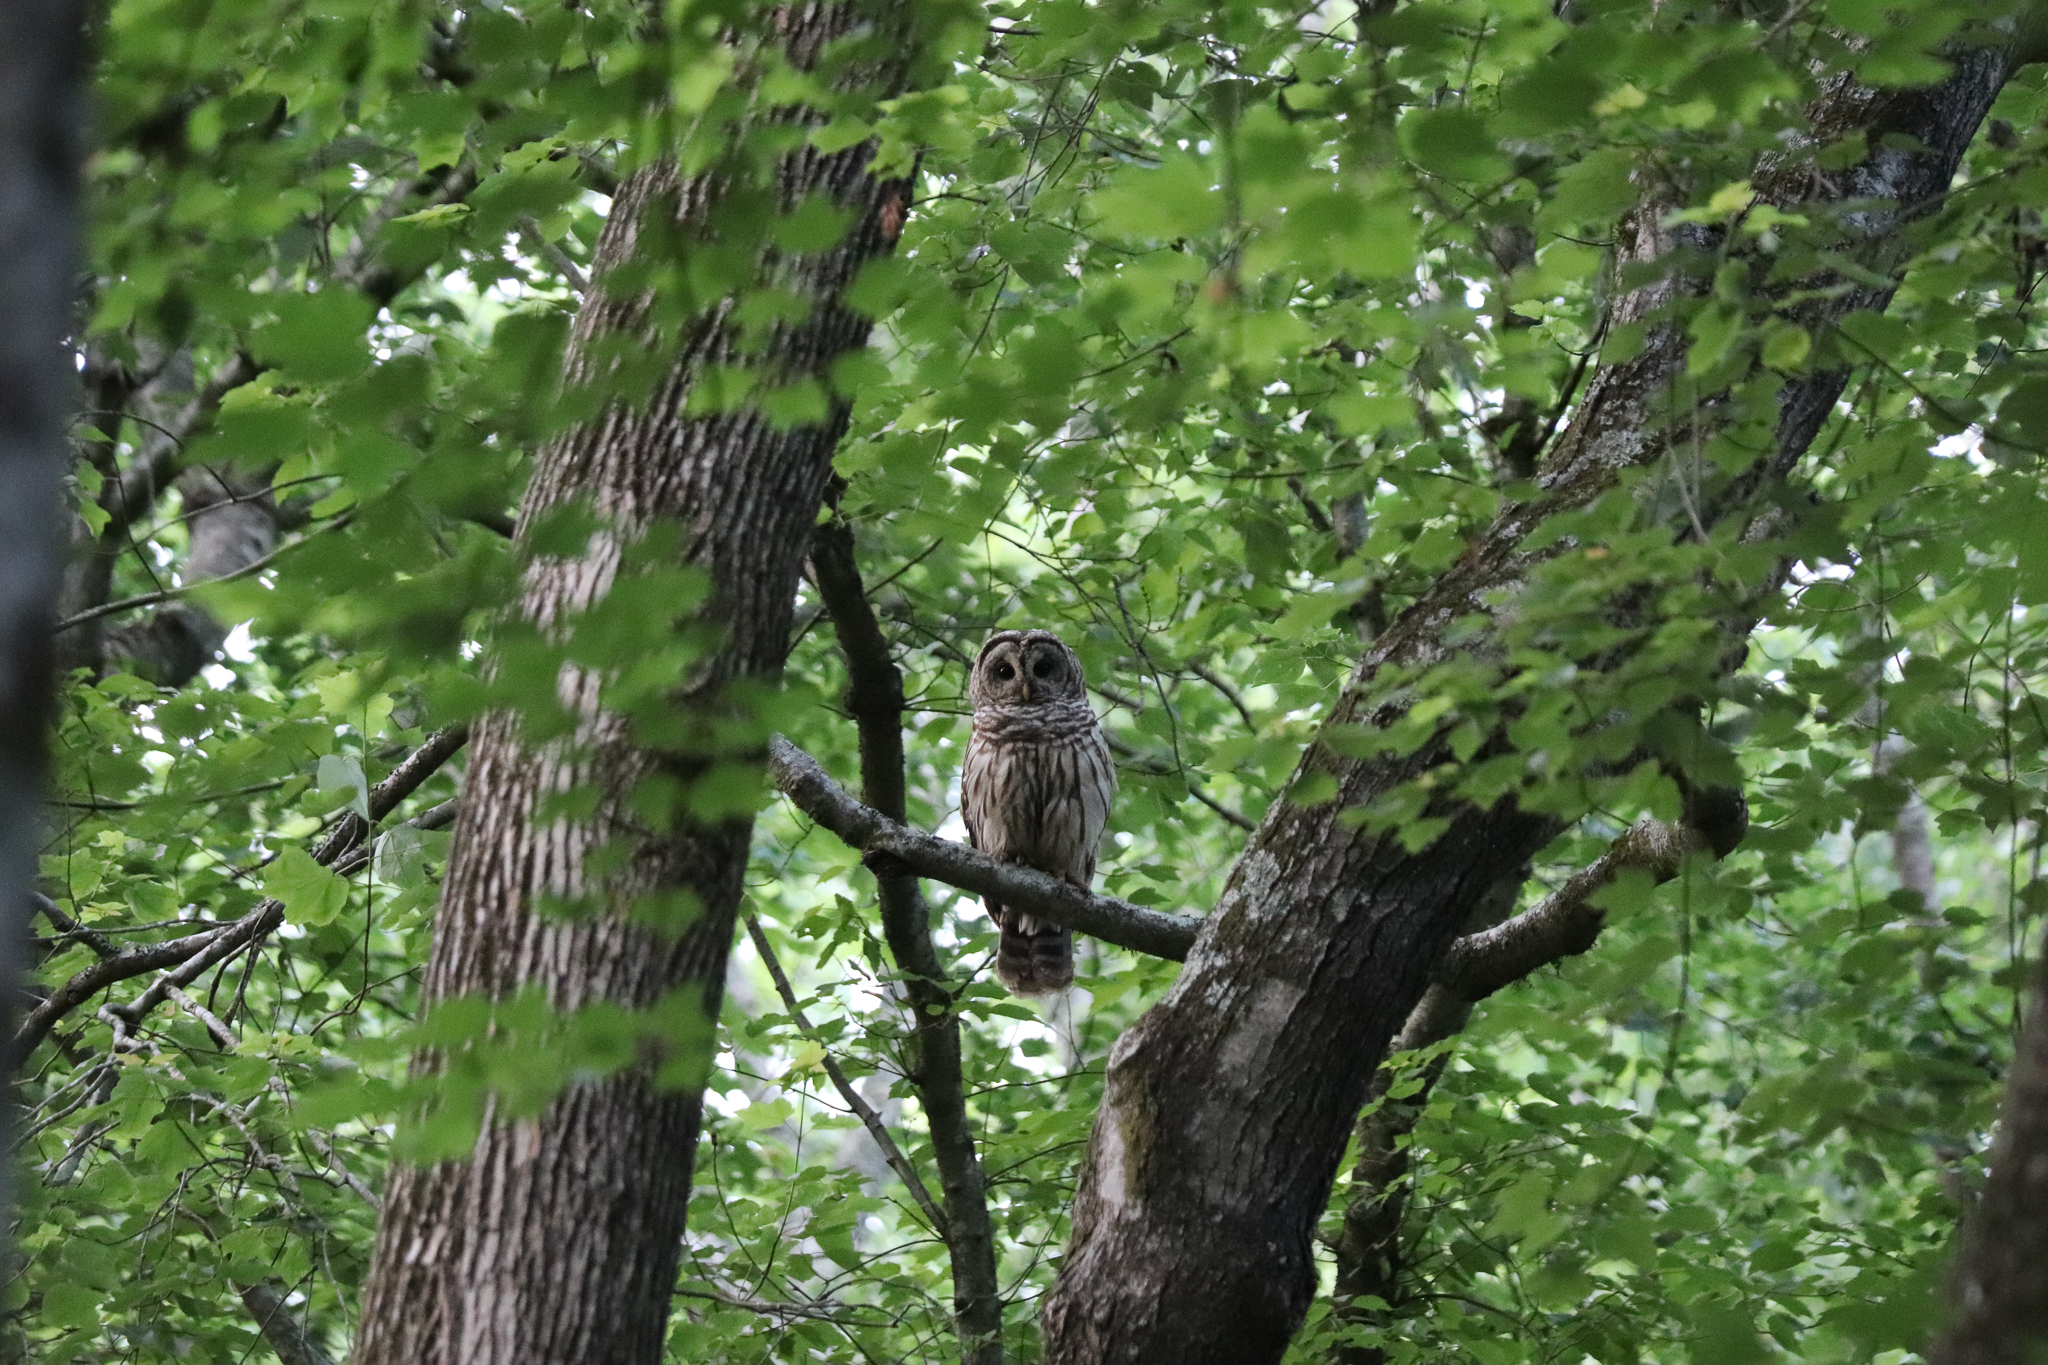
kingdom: Animalia
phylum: Chordata
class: Aves
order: Strigiformes
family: Strigidae
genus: Strix
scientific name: Strix varia
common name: Barred owl
